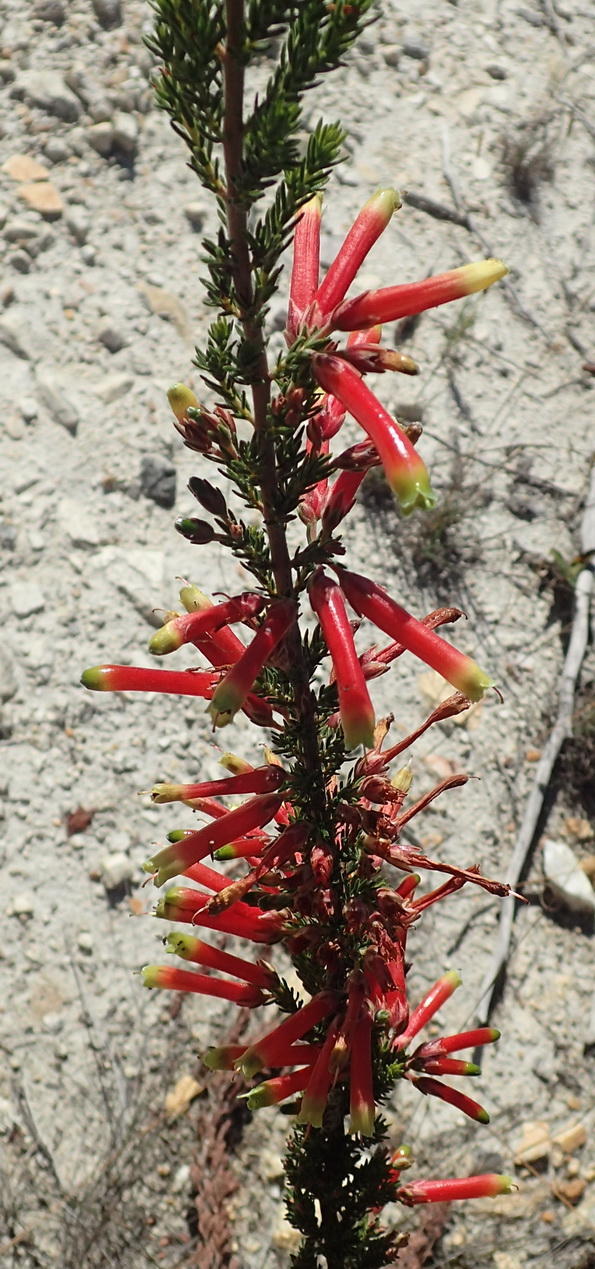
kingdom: Plantae
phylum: Tracheophyta
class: Magnoliopsida
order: Ericales
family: Ericaceae
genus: Erica
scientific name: Erica discolor
